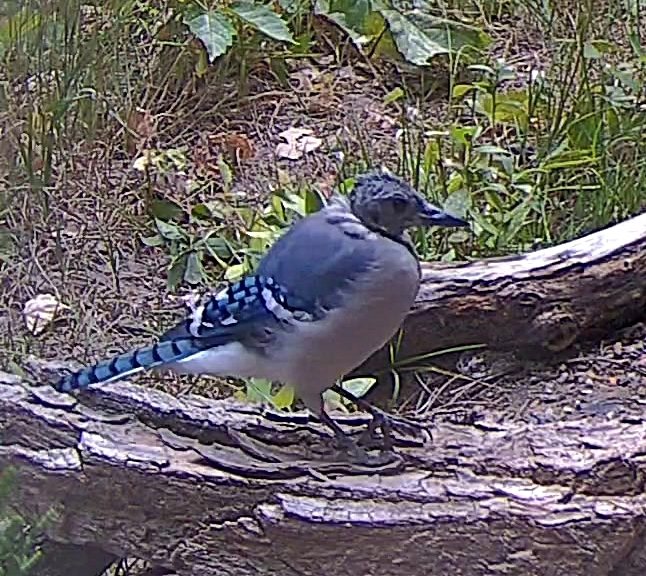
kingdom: Animalia
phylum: Chordata
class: Aves
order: Passeriformes
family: Corvidae
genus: Cyanocitta
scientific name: Cyanocitta cristata
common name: Blue jay
